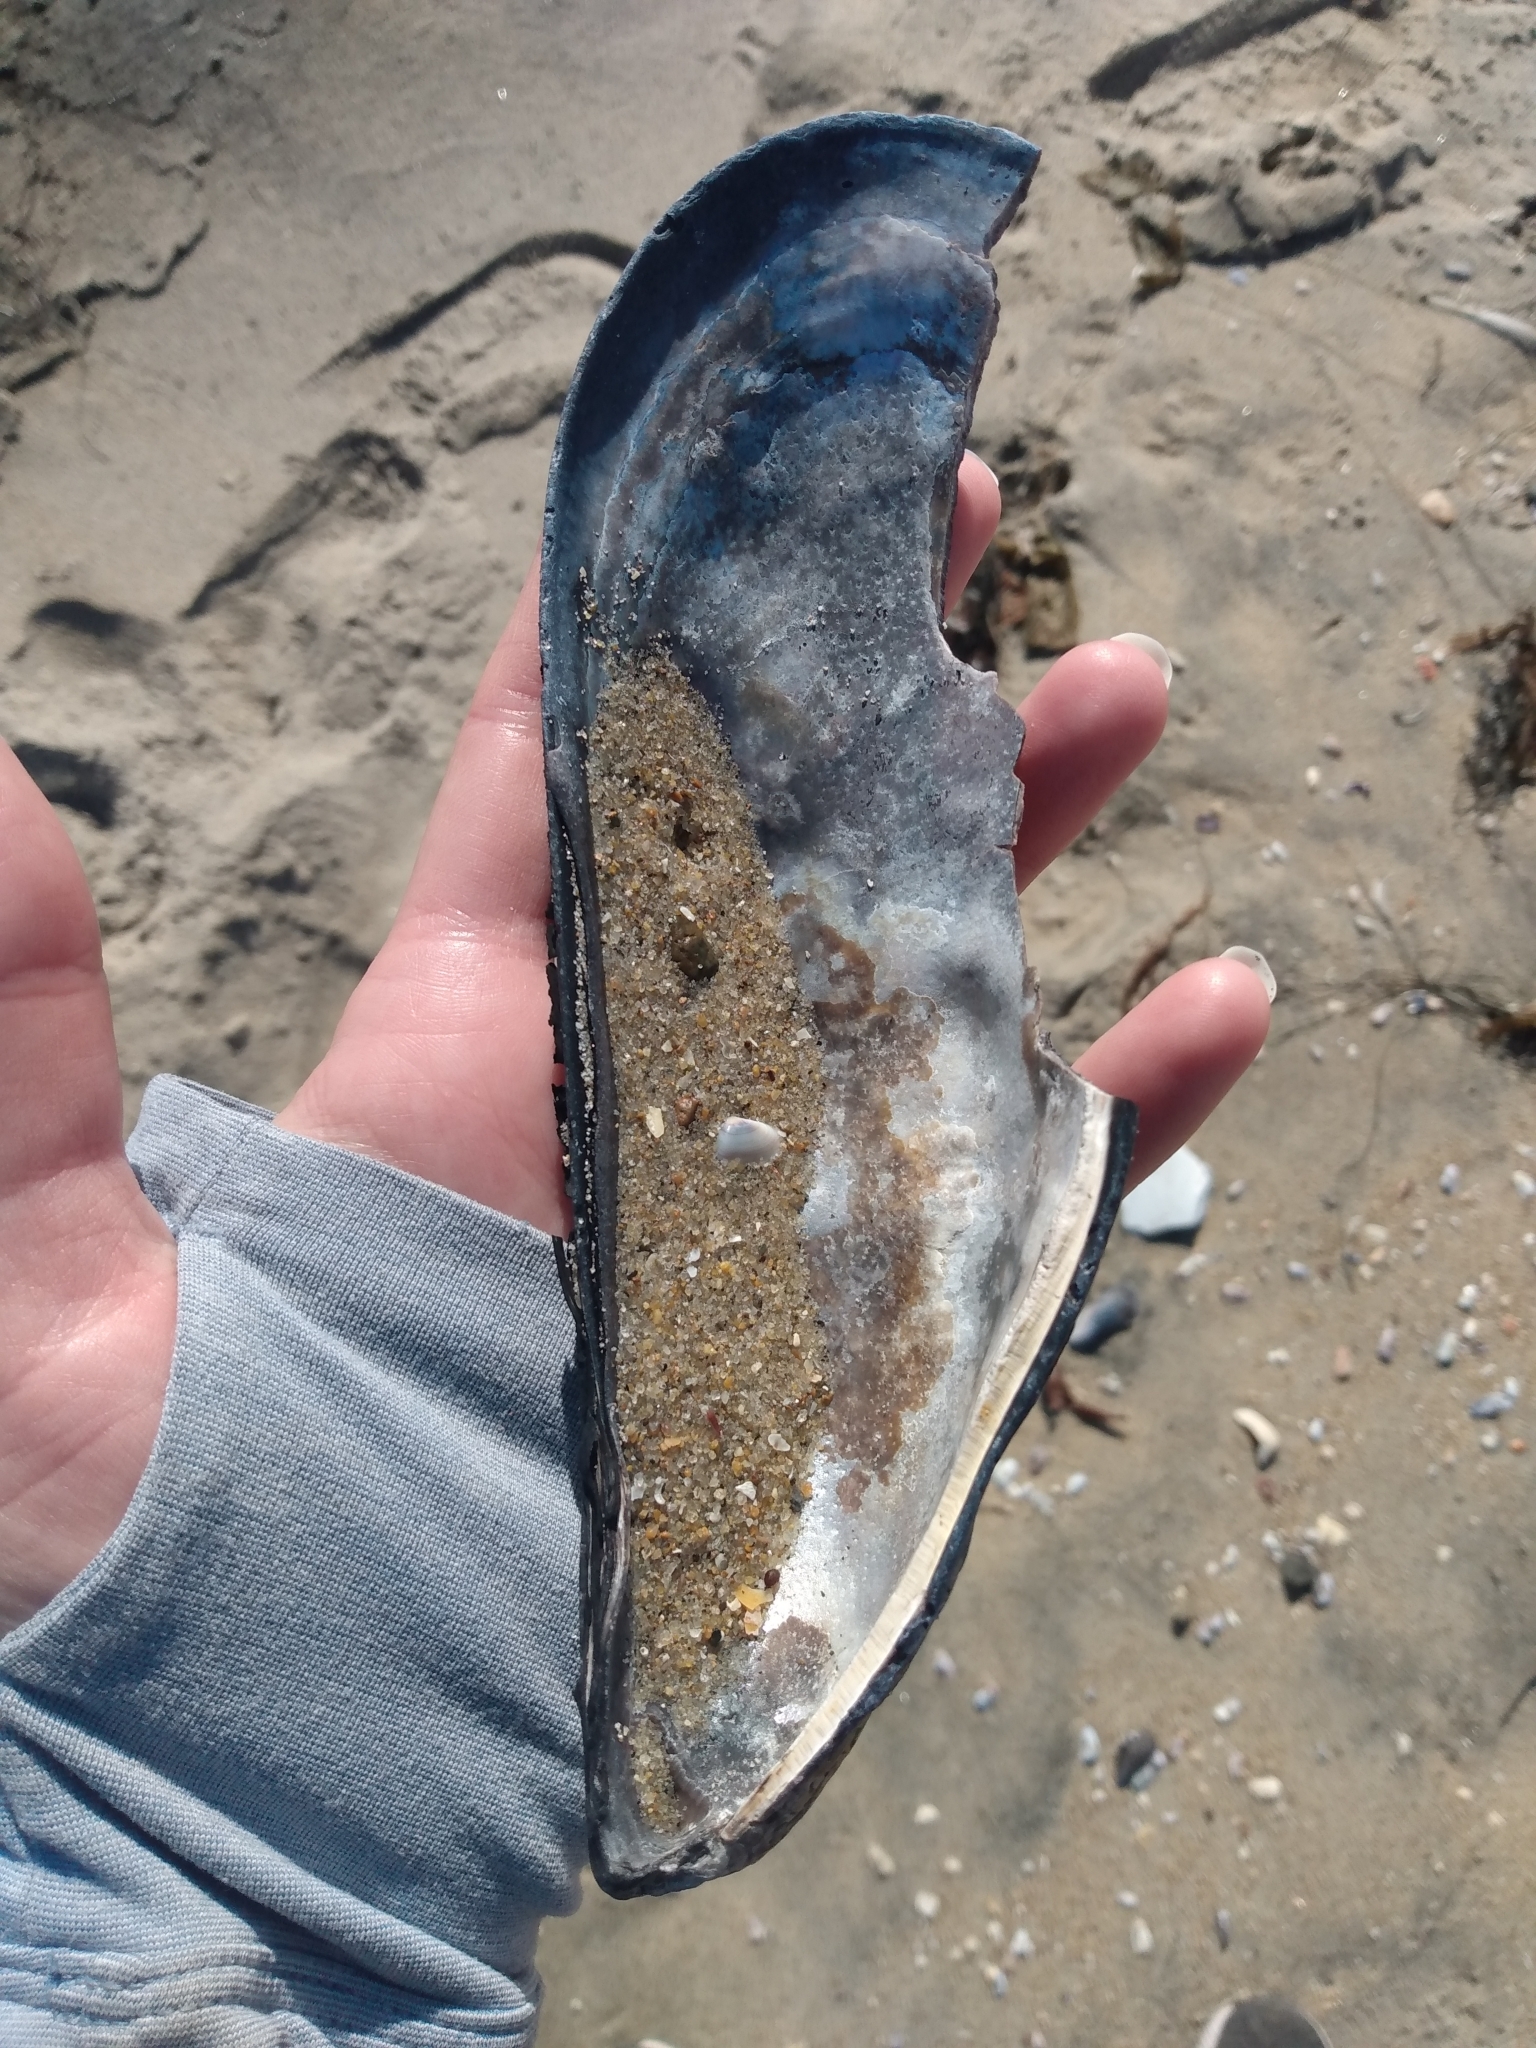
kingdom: Animalia
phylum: Mollusca
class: Bivalvia
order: Mytilida
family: Mytilidae
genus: Mytilus
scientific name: Mytilus californianus
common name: California mussel
